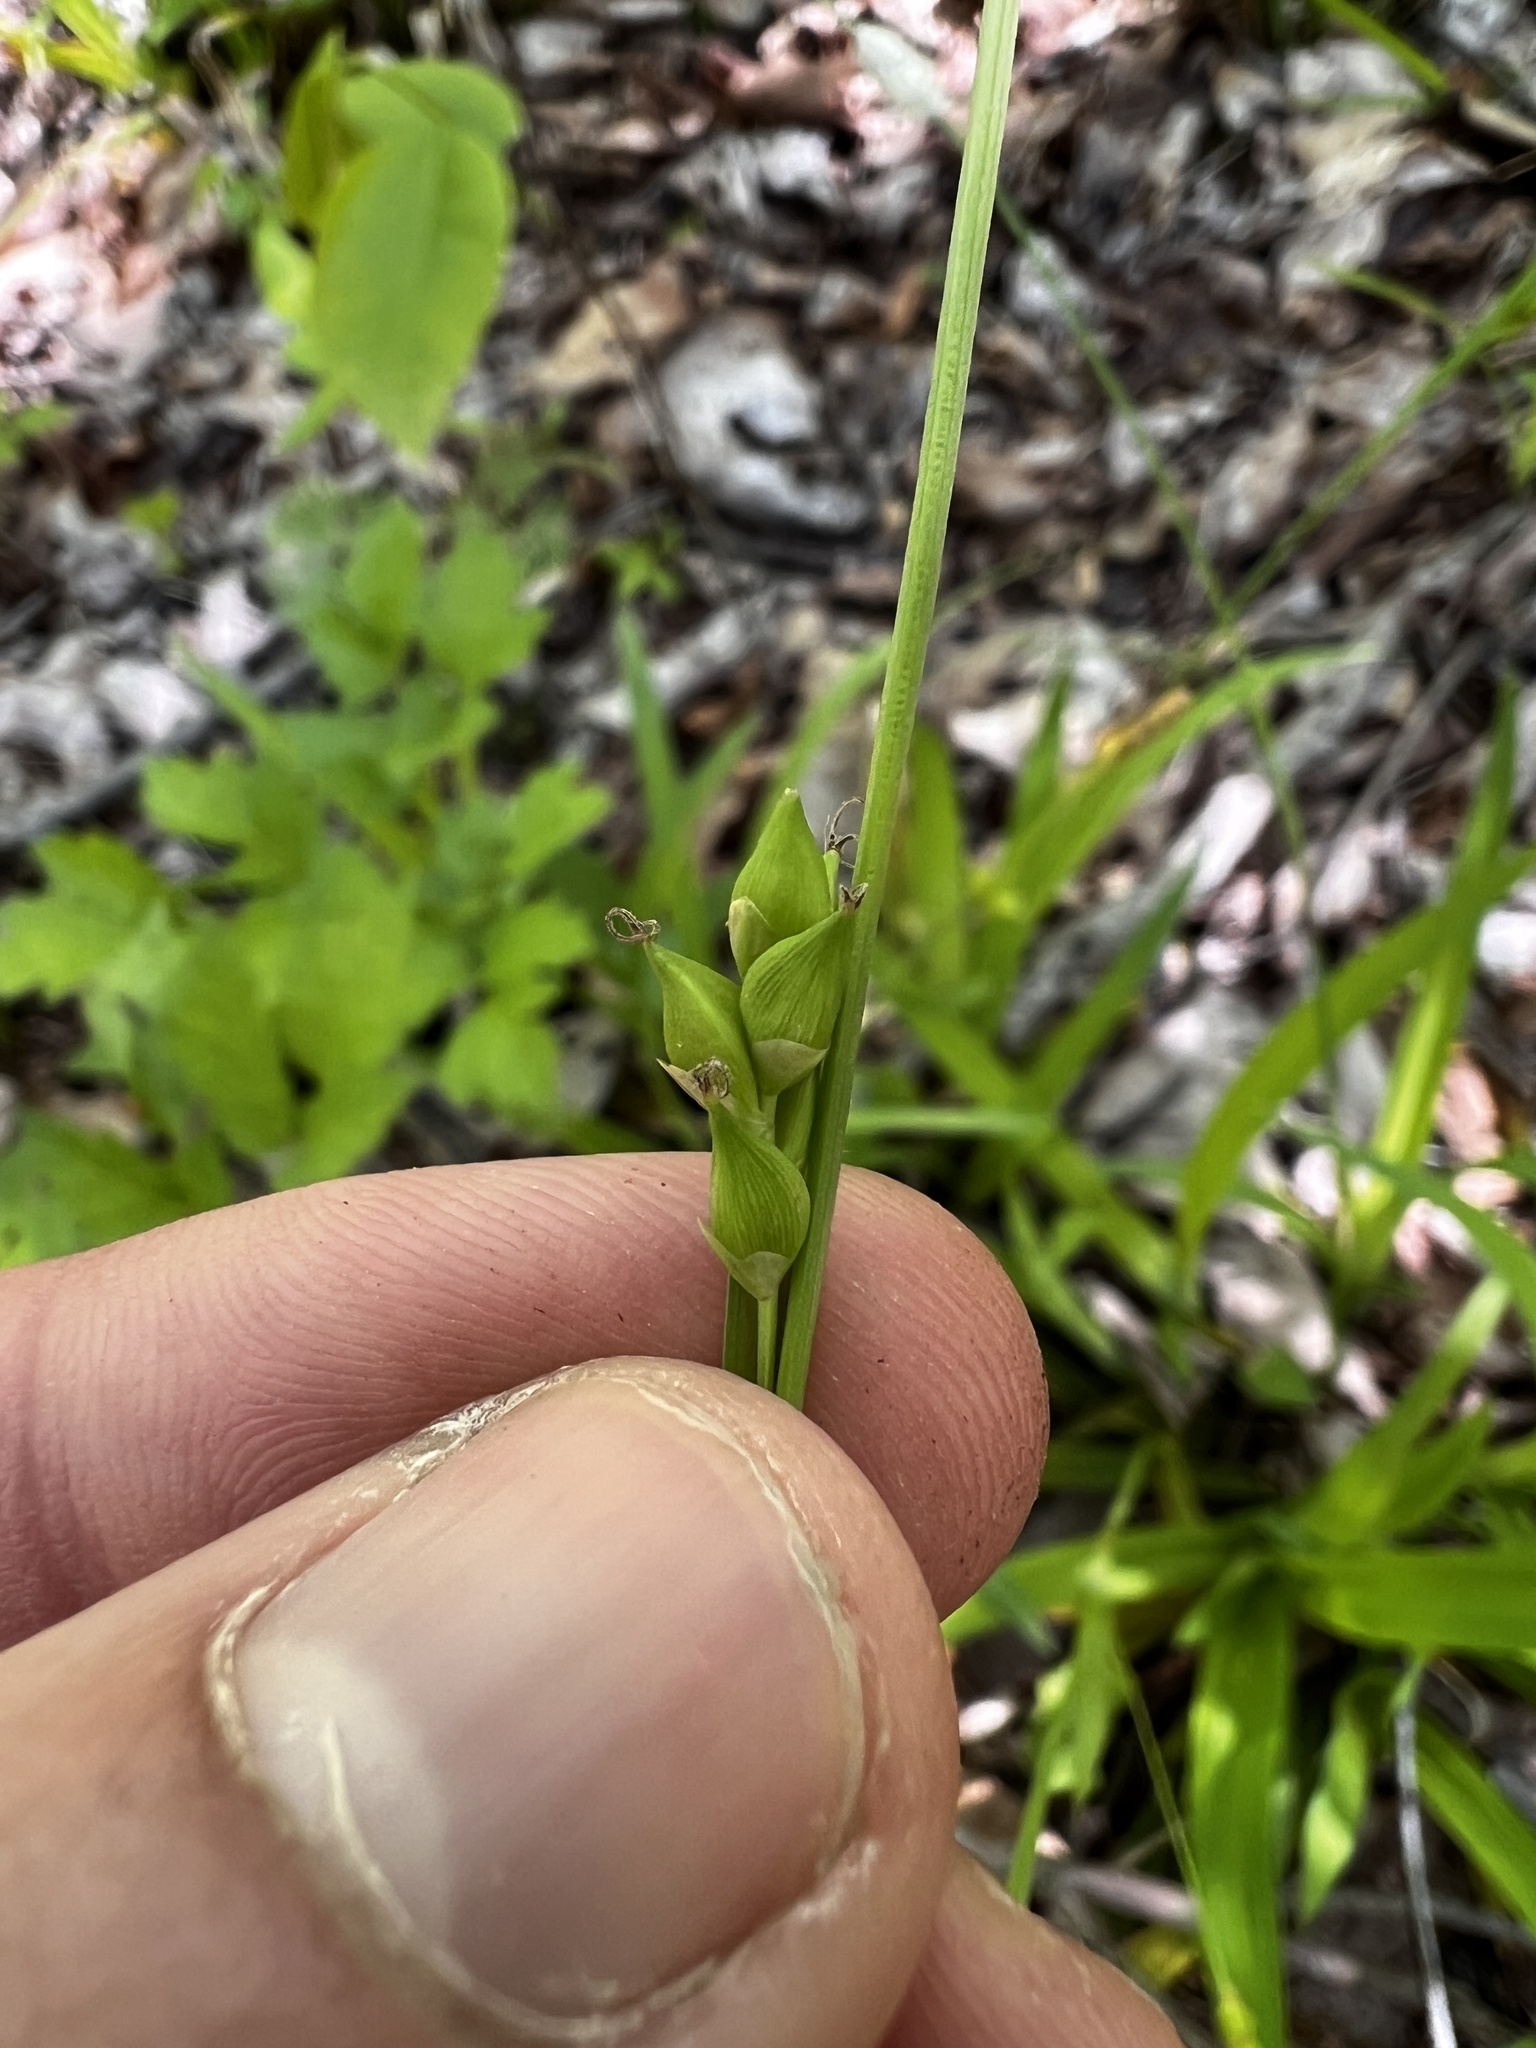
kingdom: Plantae
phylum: Tracheophyta
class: Liliopsida
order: Poales
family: Cyperaceae
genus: Carex
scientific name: Carex careyana
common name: Carey's sedge
